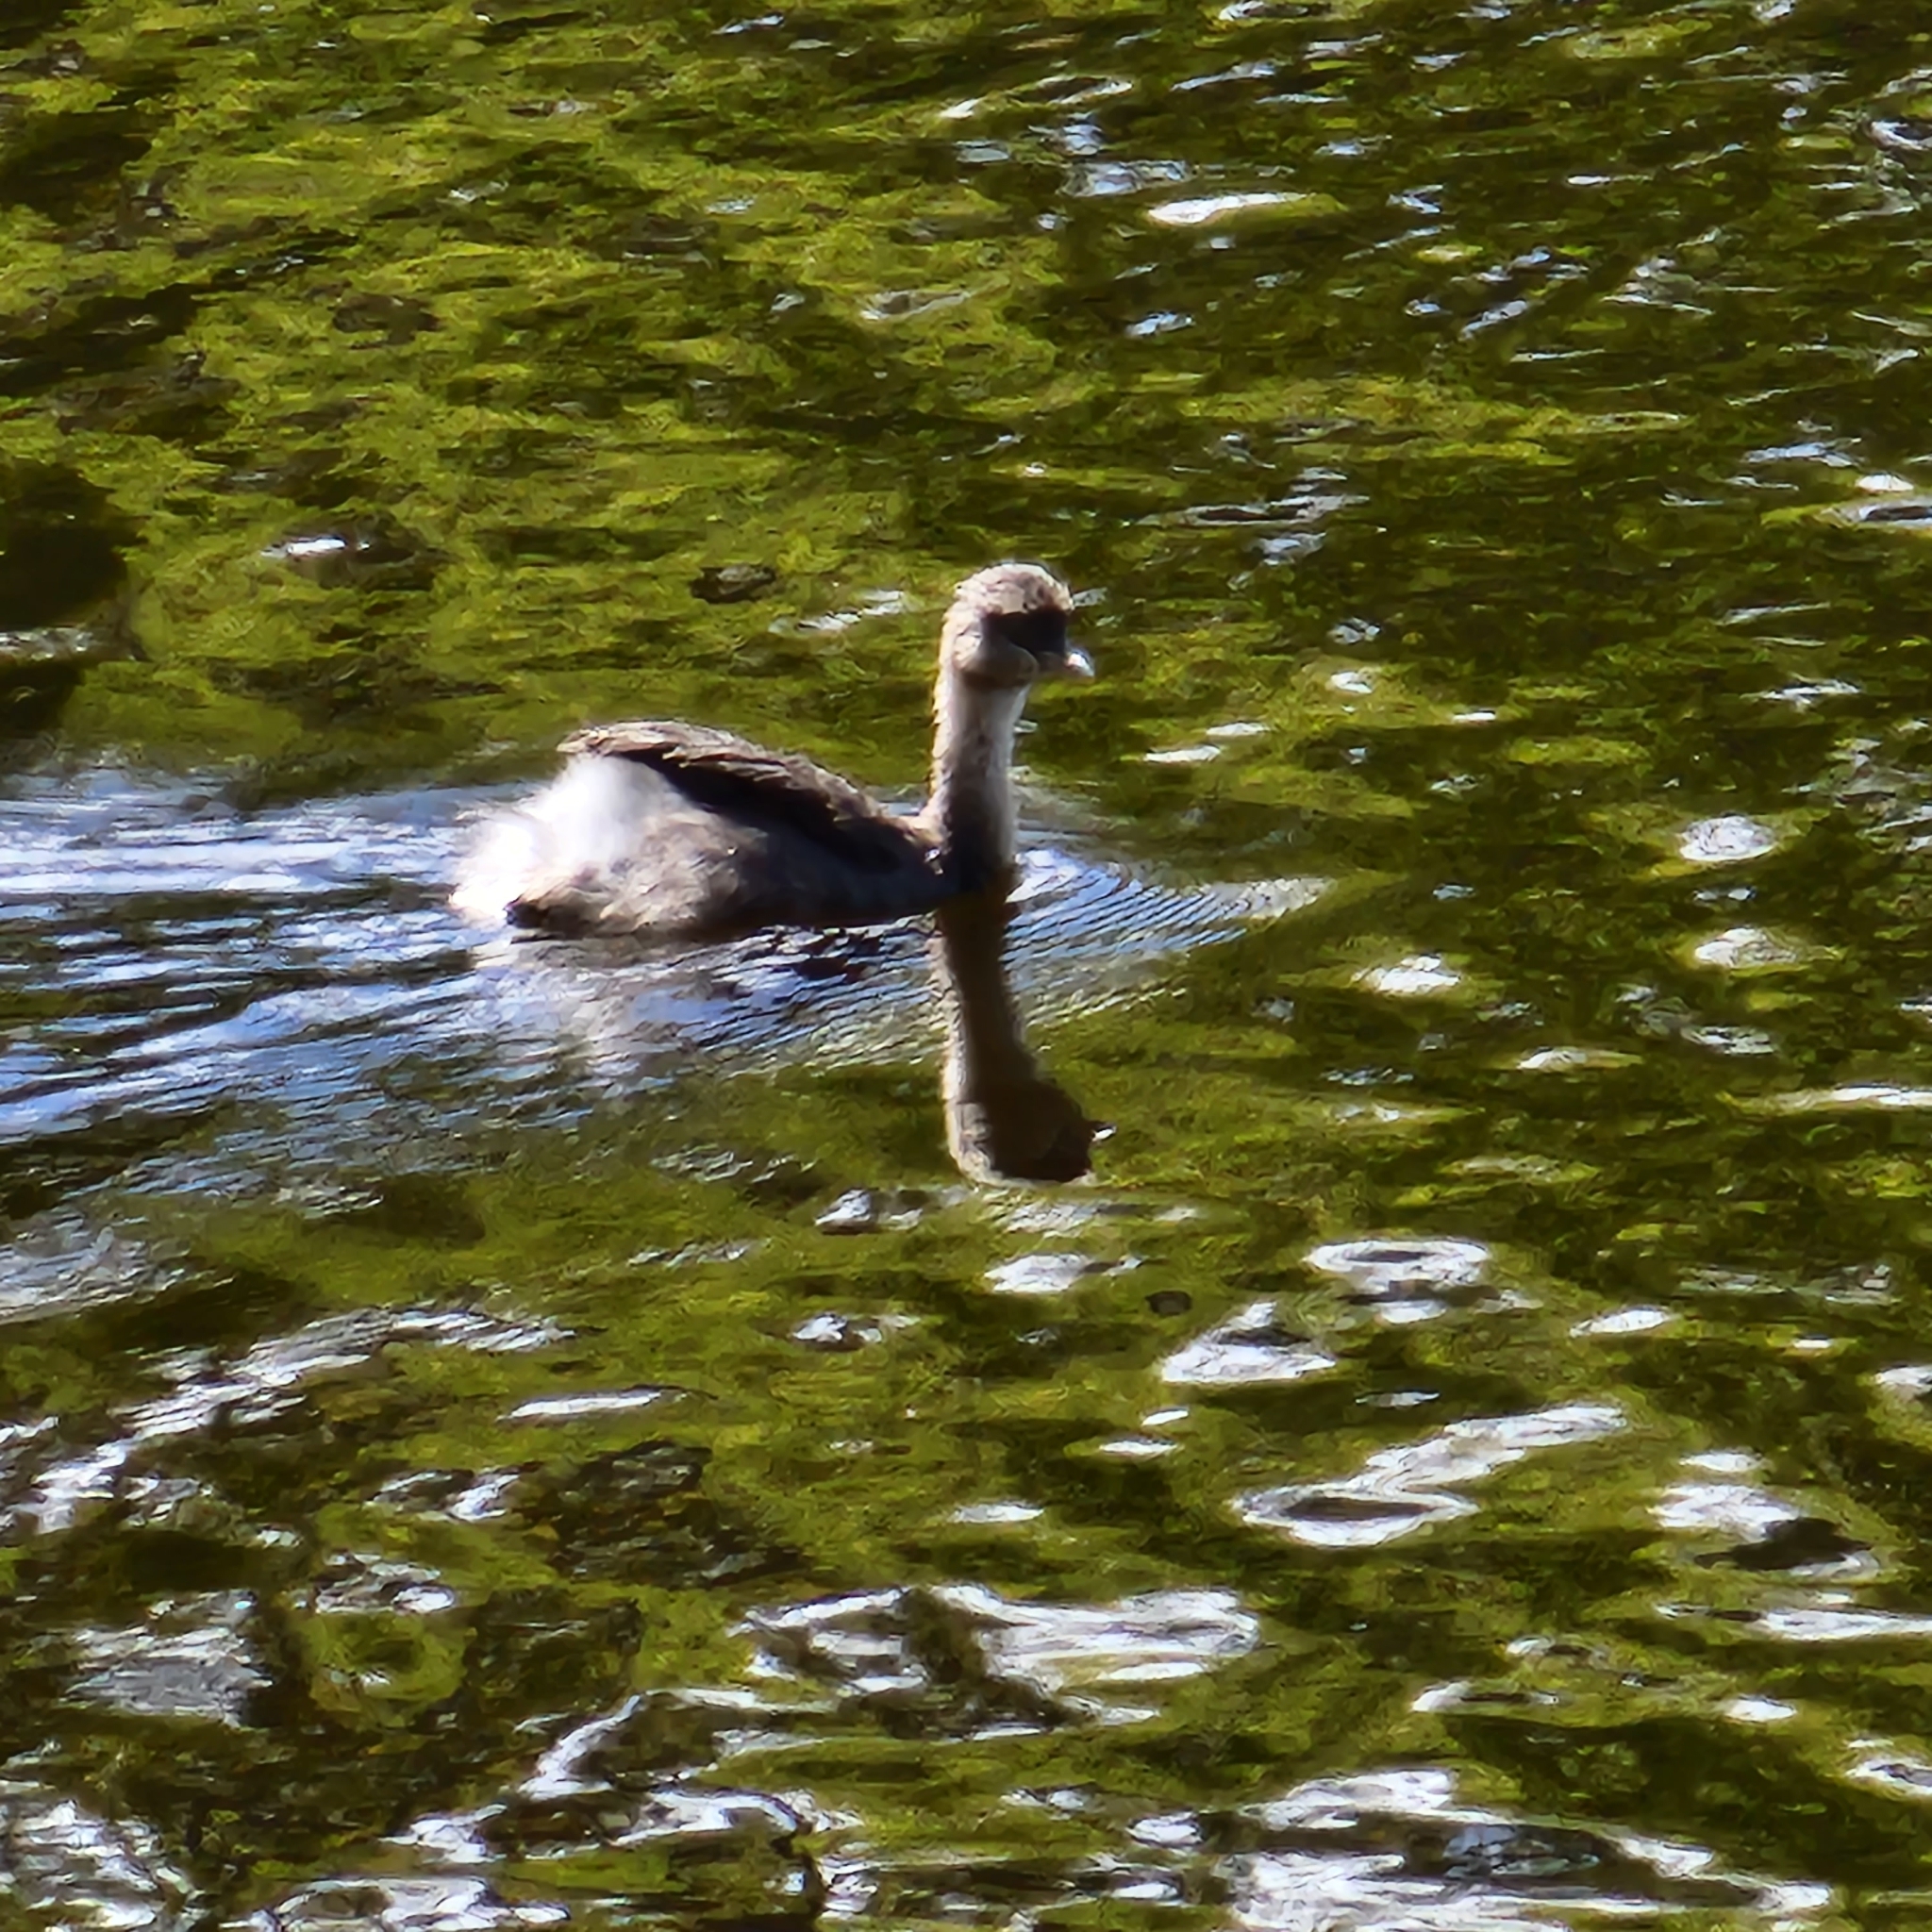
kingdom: Animalia
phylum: Chordata
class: Aves
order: Podicipediformes
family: Podicipedidae
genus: Poliocephalus
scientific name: Poliocephalus poliocephalus
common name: Hoary-headed grebe
